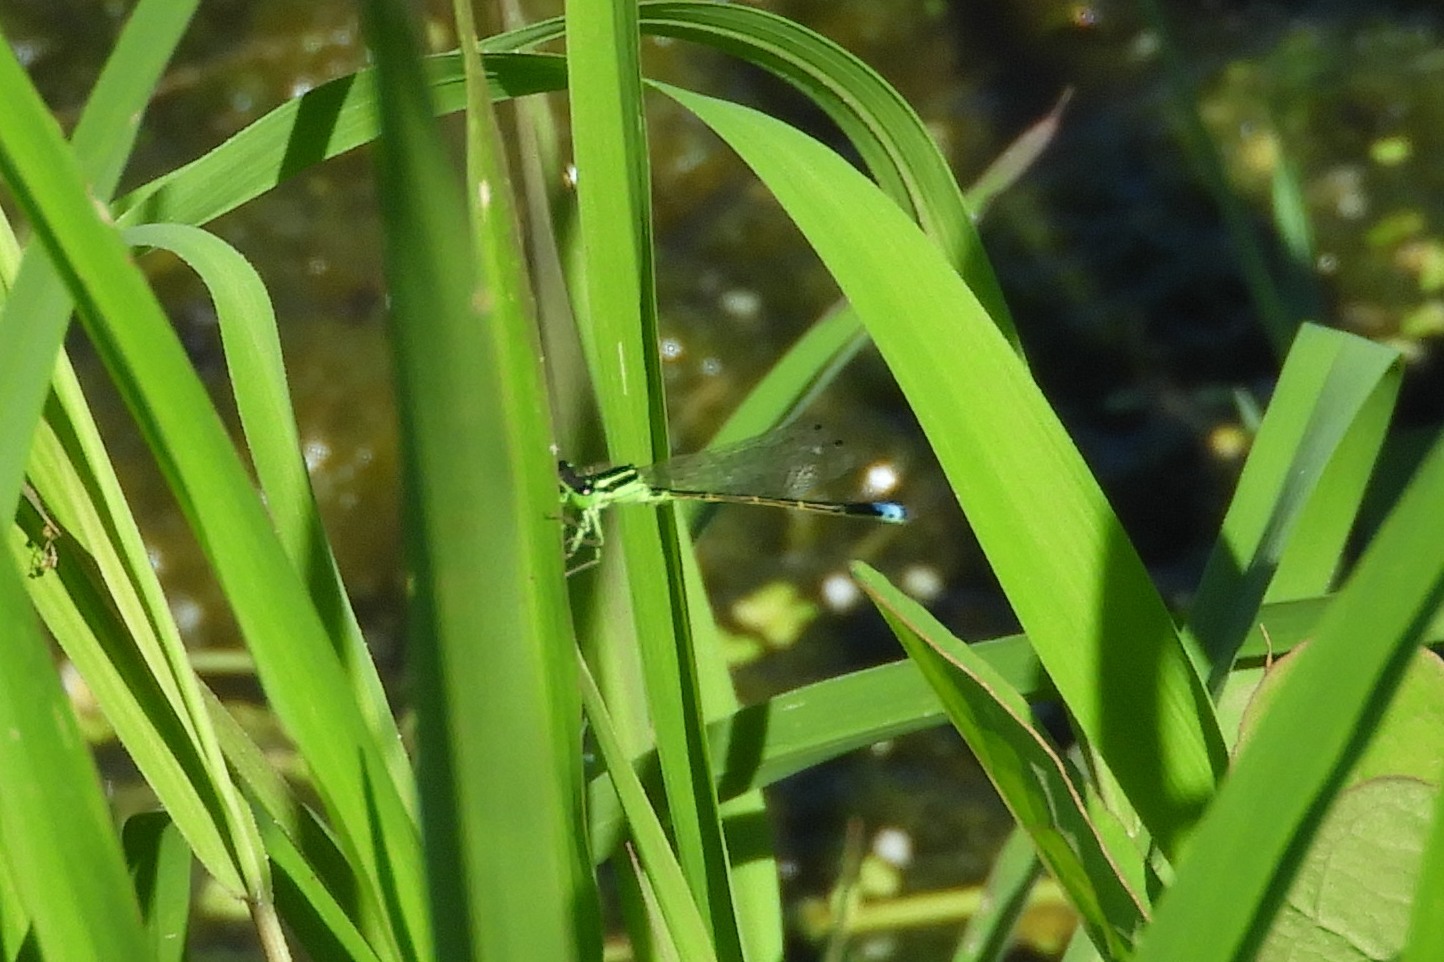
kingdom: Animalia
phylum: Arthropoda
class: Insecta
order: Odonata
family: Coenagrionidae
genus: Ischnura
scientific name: Ischnura verticalis
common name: Eastern forktail
